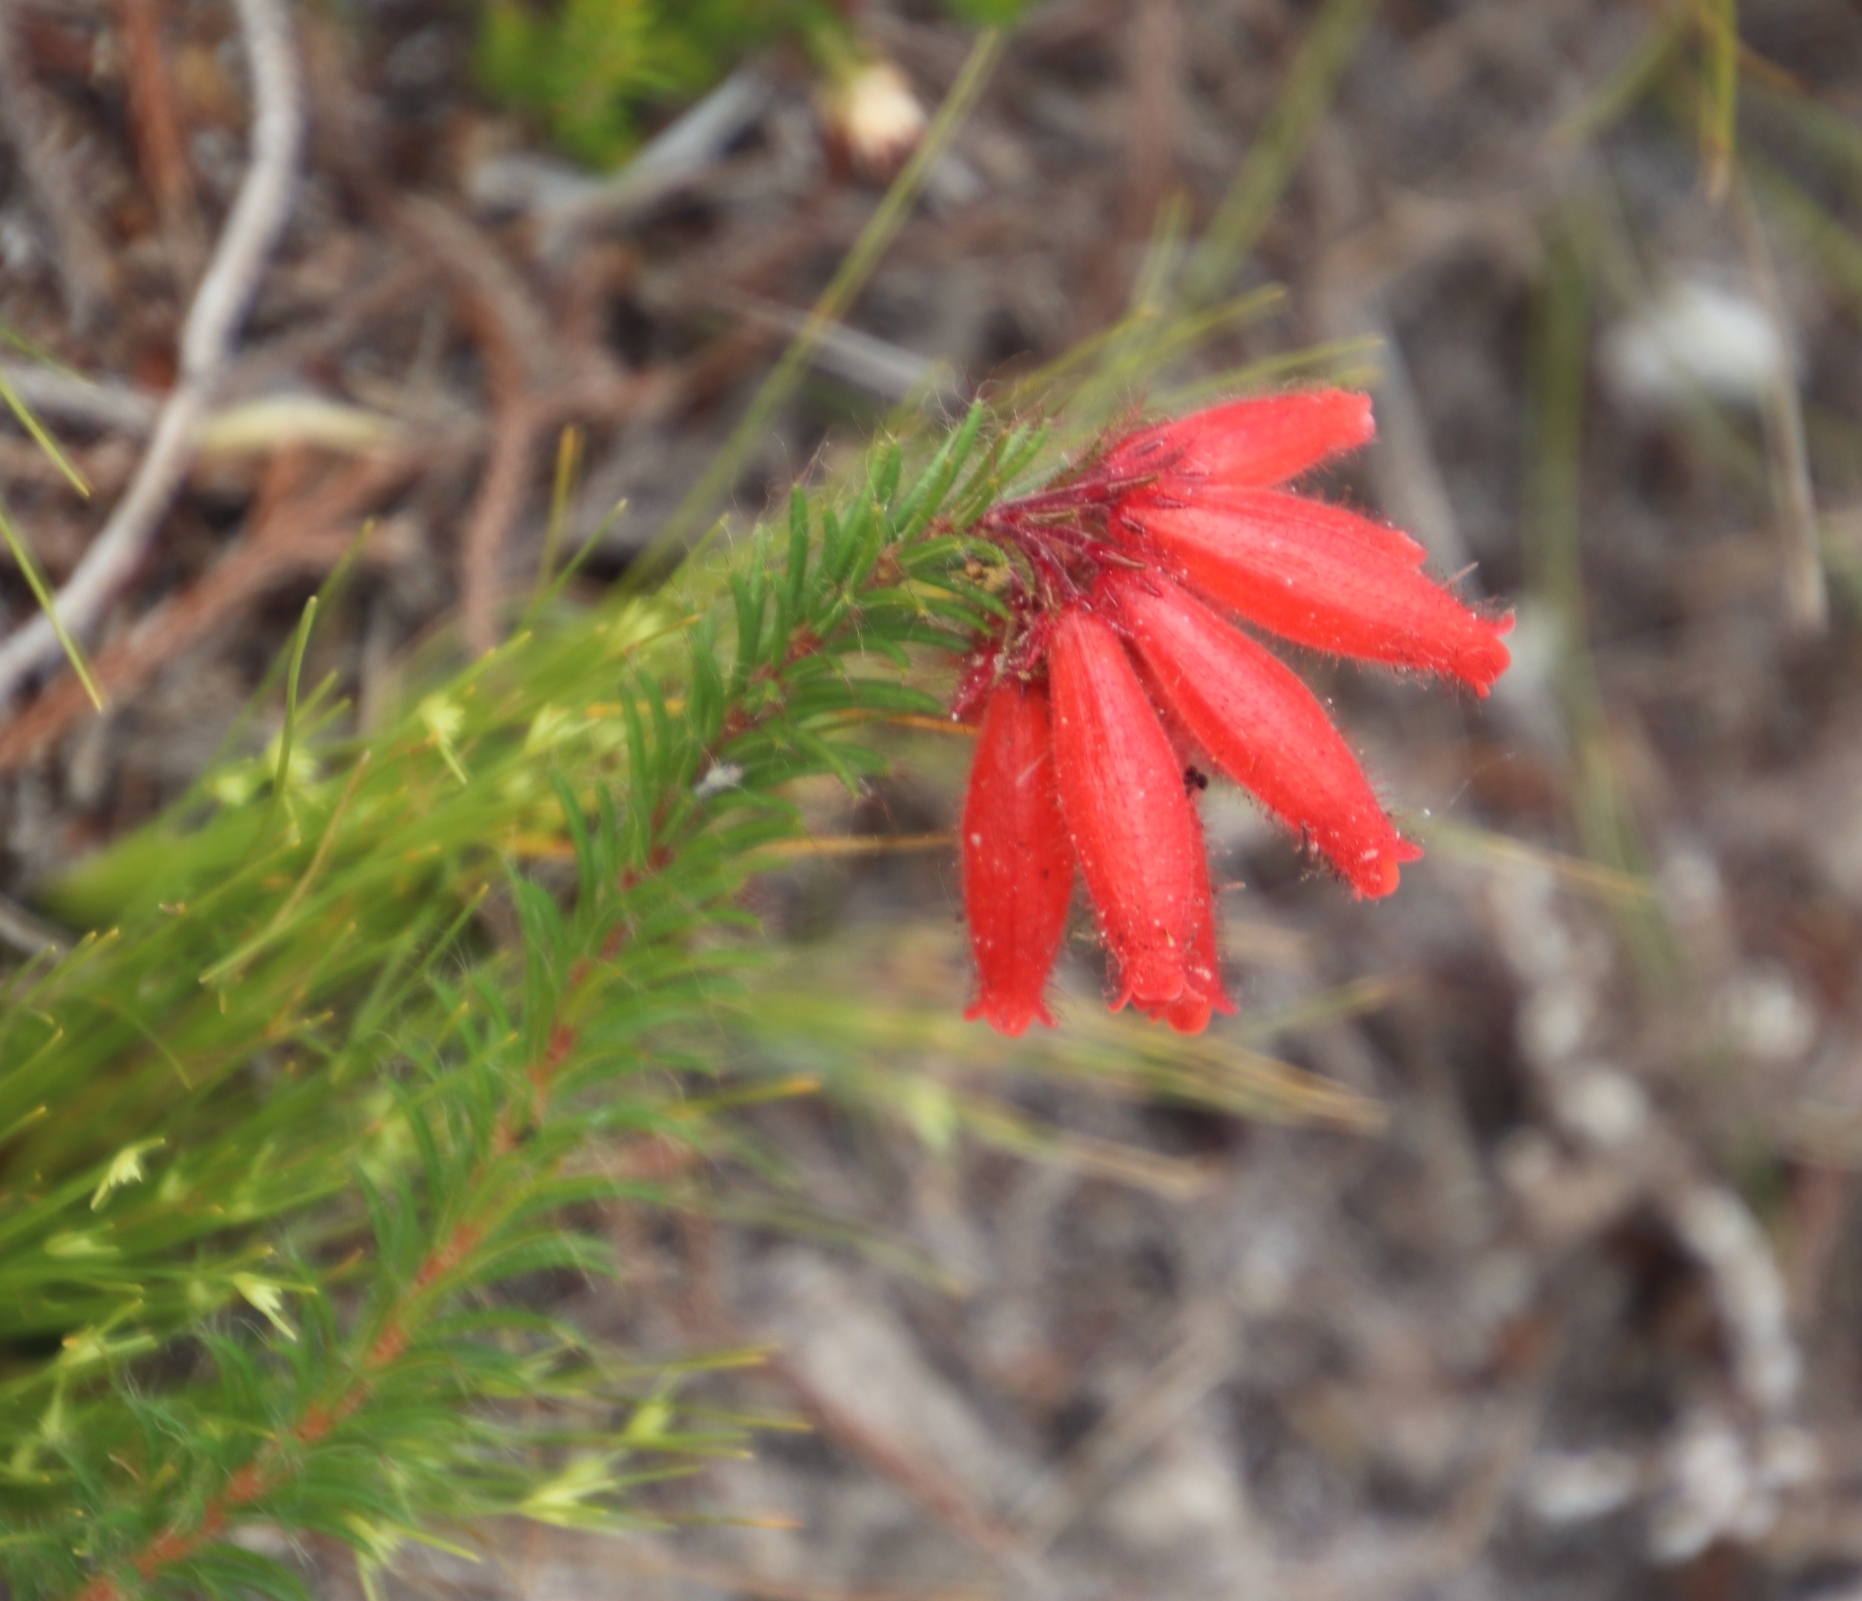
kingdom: Plantae
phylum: Tracheophyta
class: Magnoliopsida
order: Ericales
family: Ericaceae
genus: Erica
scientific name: Erica cerinthoides
